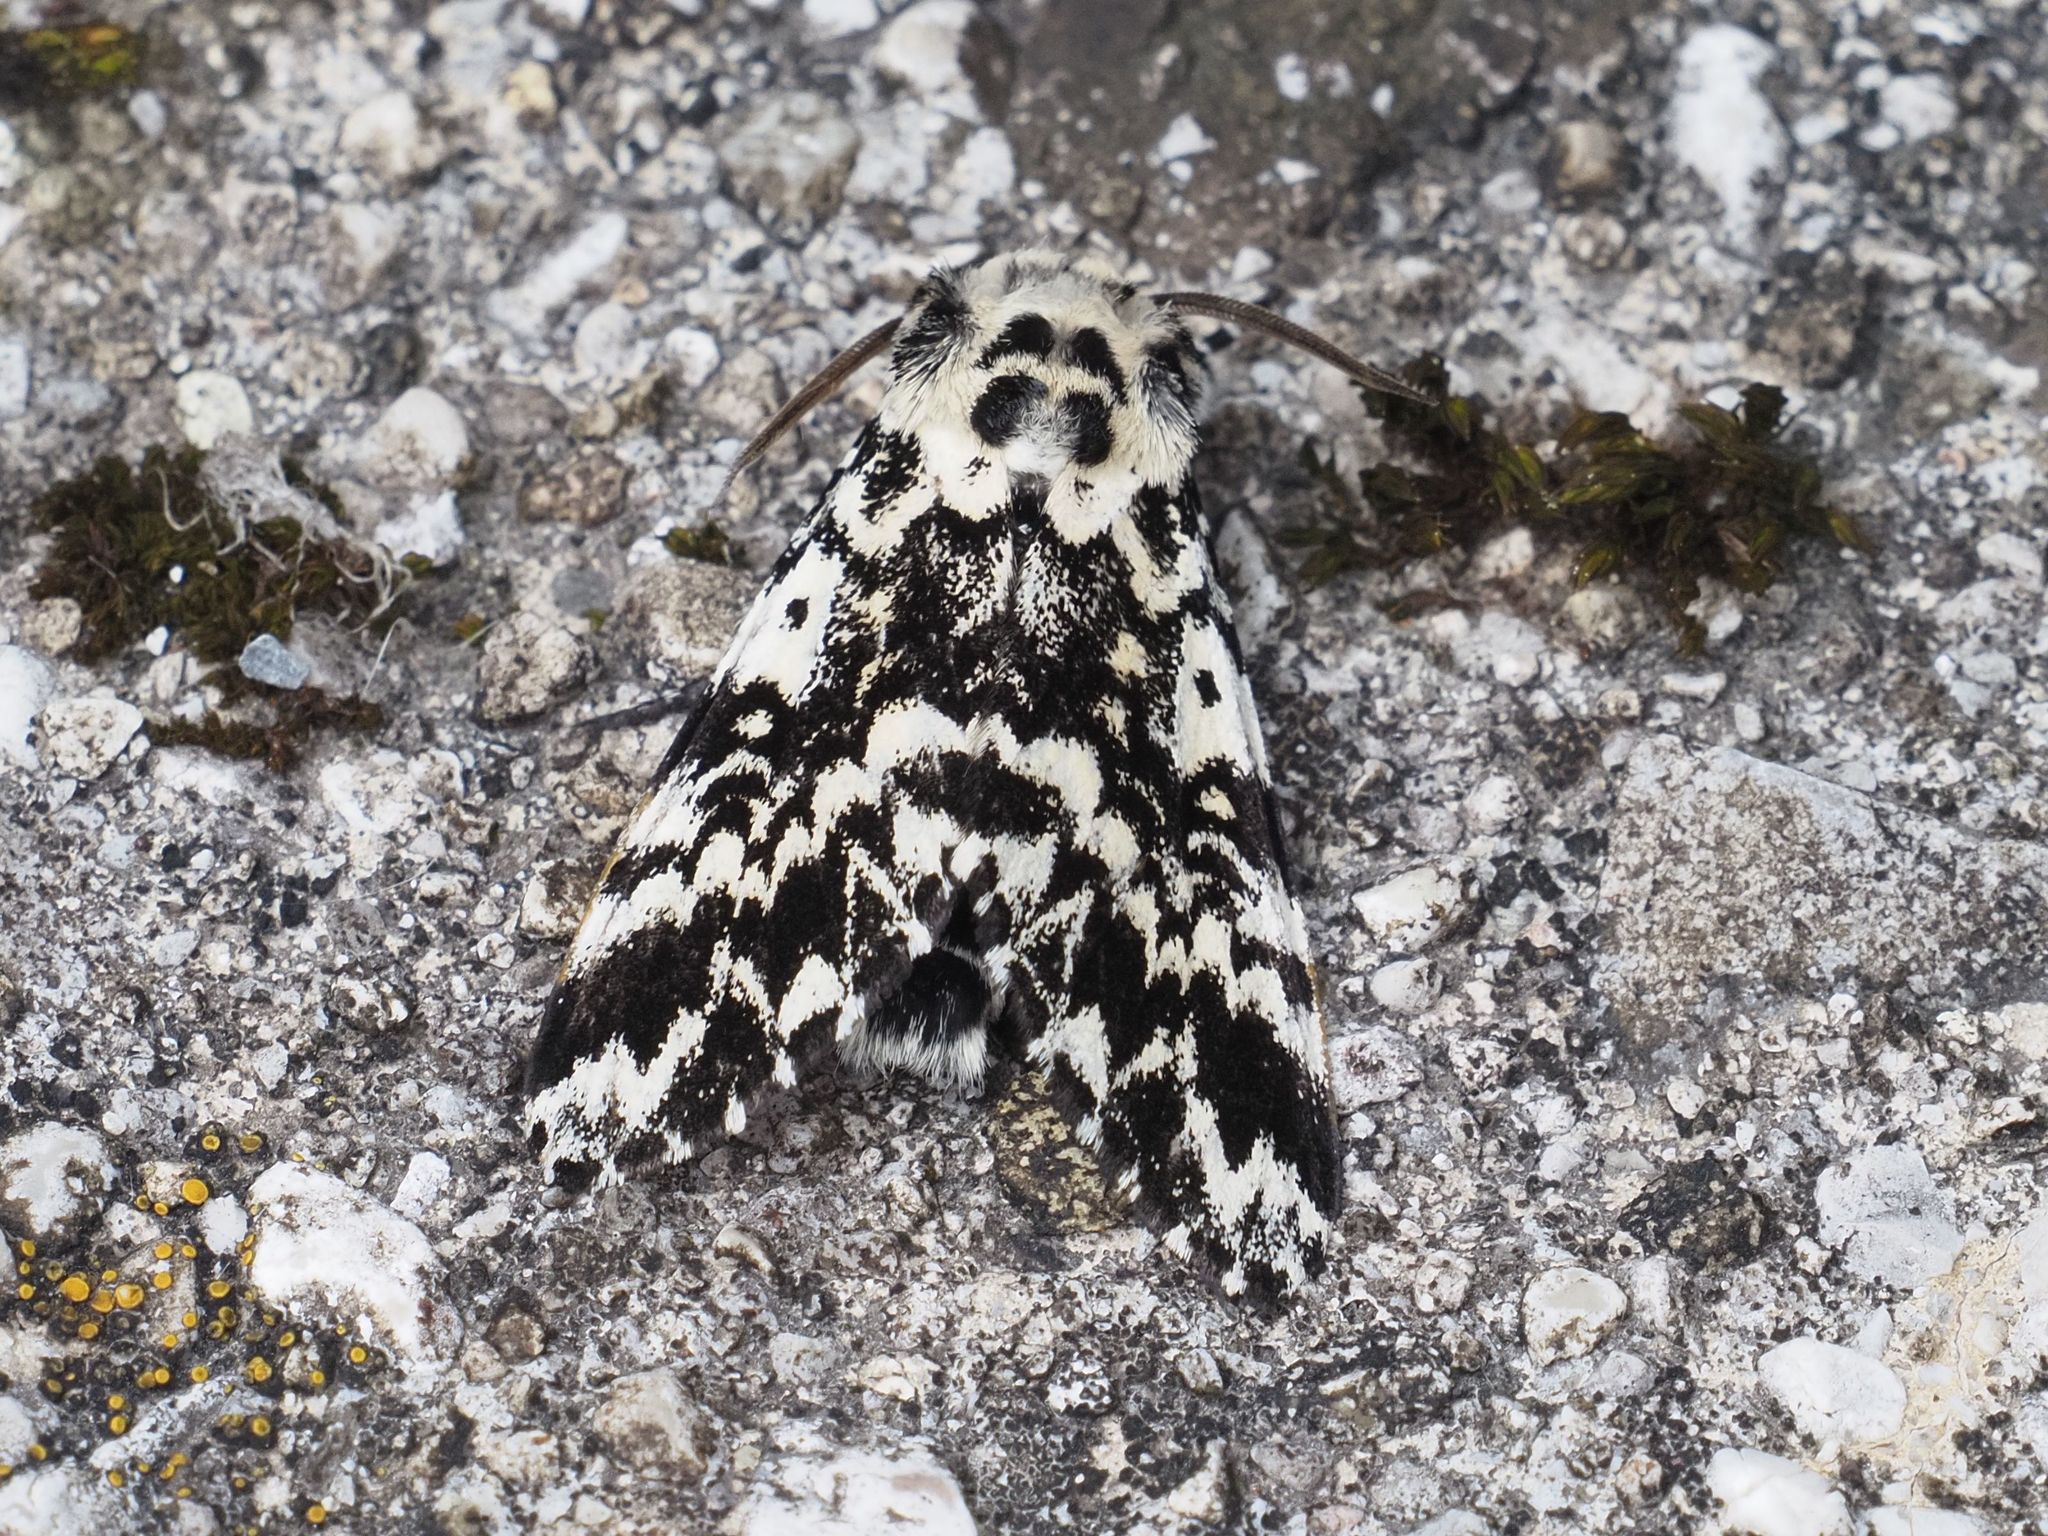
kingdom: Animalia
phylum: Arthropoda
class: Insecta
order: Lepidoptera
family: Noctuidae
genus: Panthea
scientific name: Panthea coenobita
